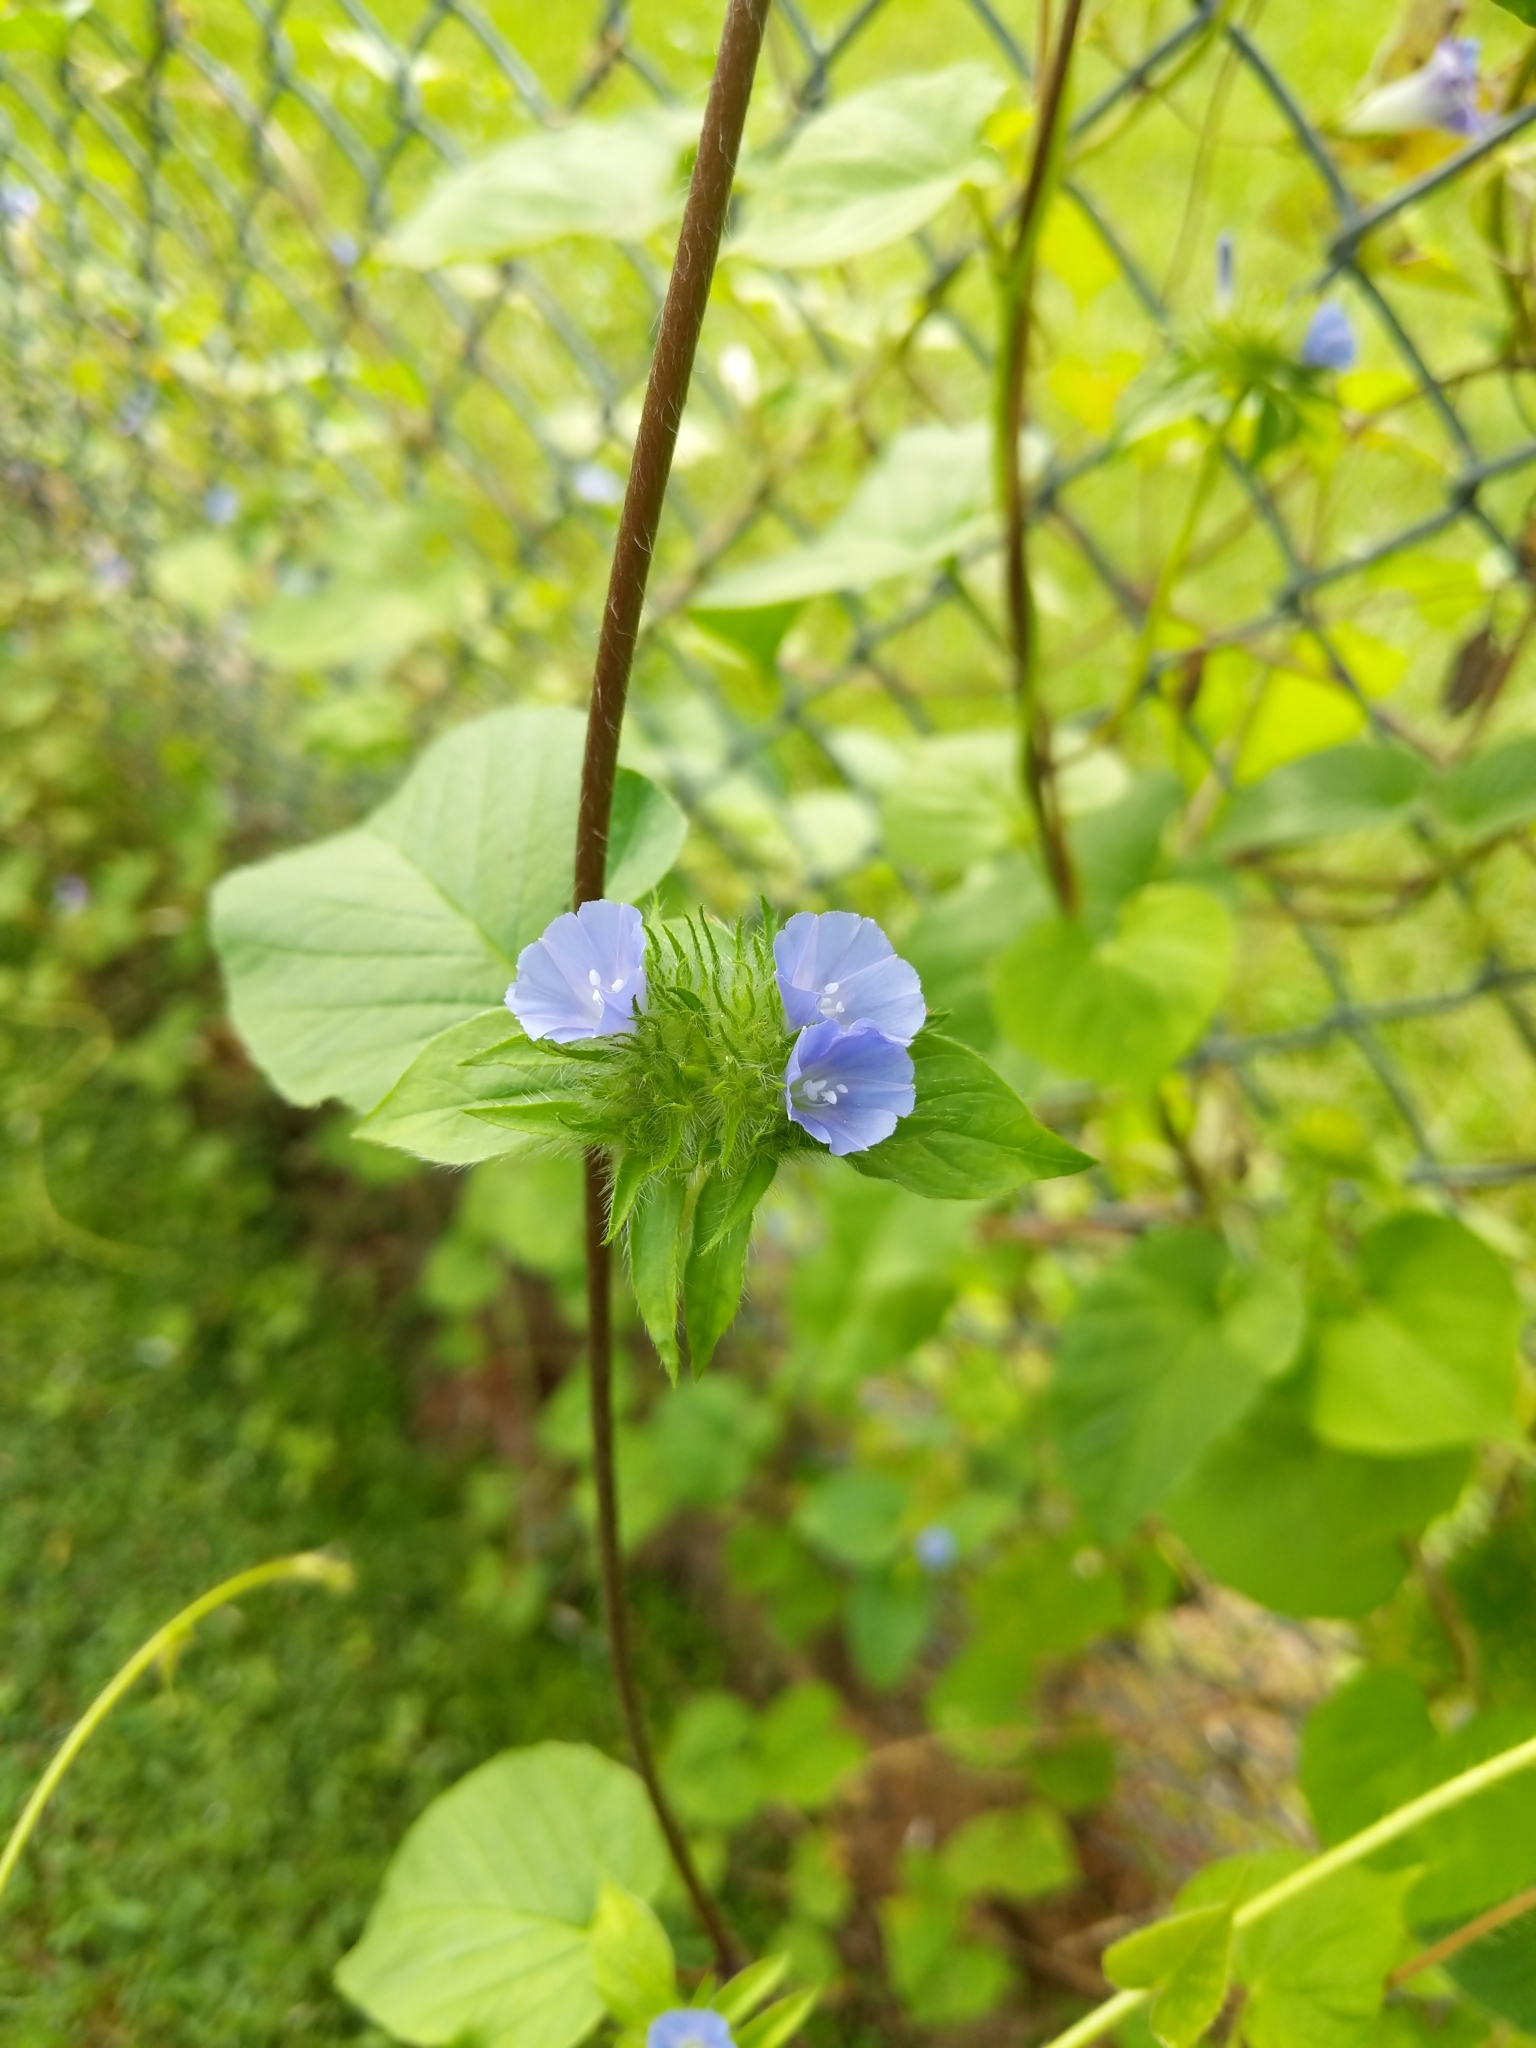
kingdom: Plantae
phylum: Tracheophyta
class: Magnoliopsida
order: Solanales
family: Convolvulaceae
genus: Jacquemontia
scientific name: Jacquemontia tamnifolia
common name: Hairy clustervine
